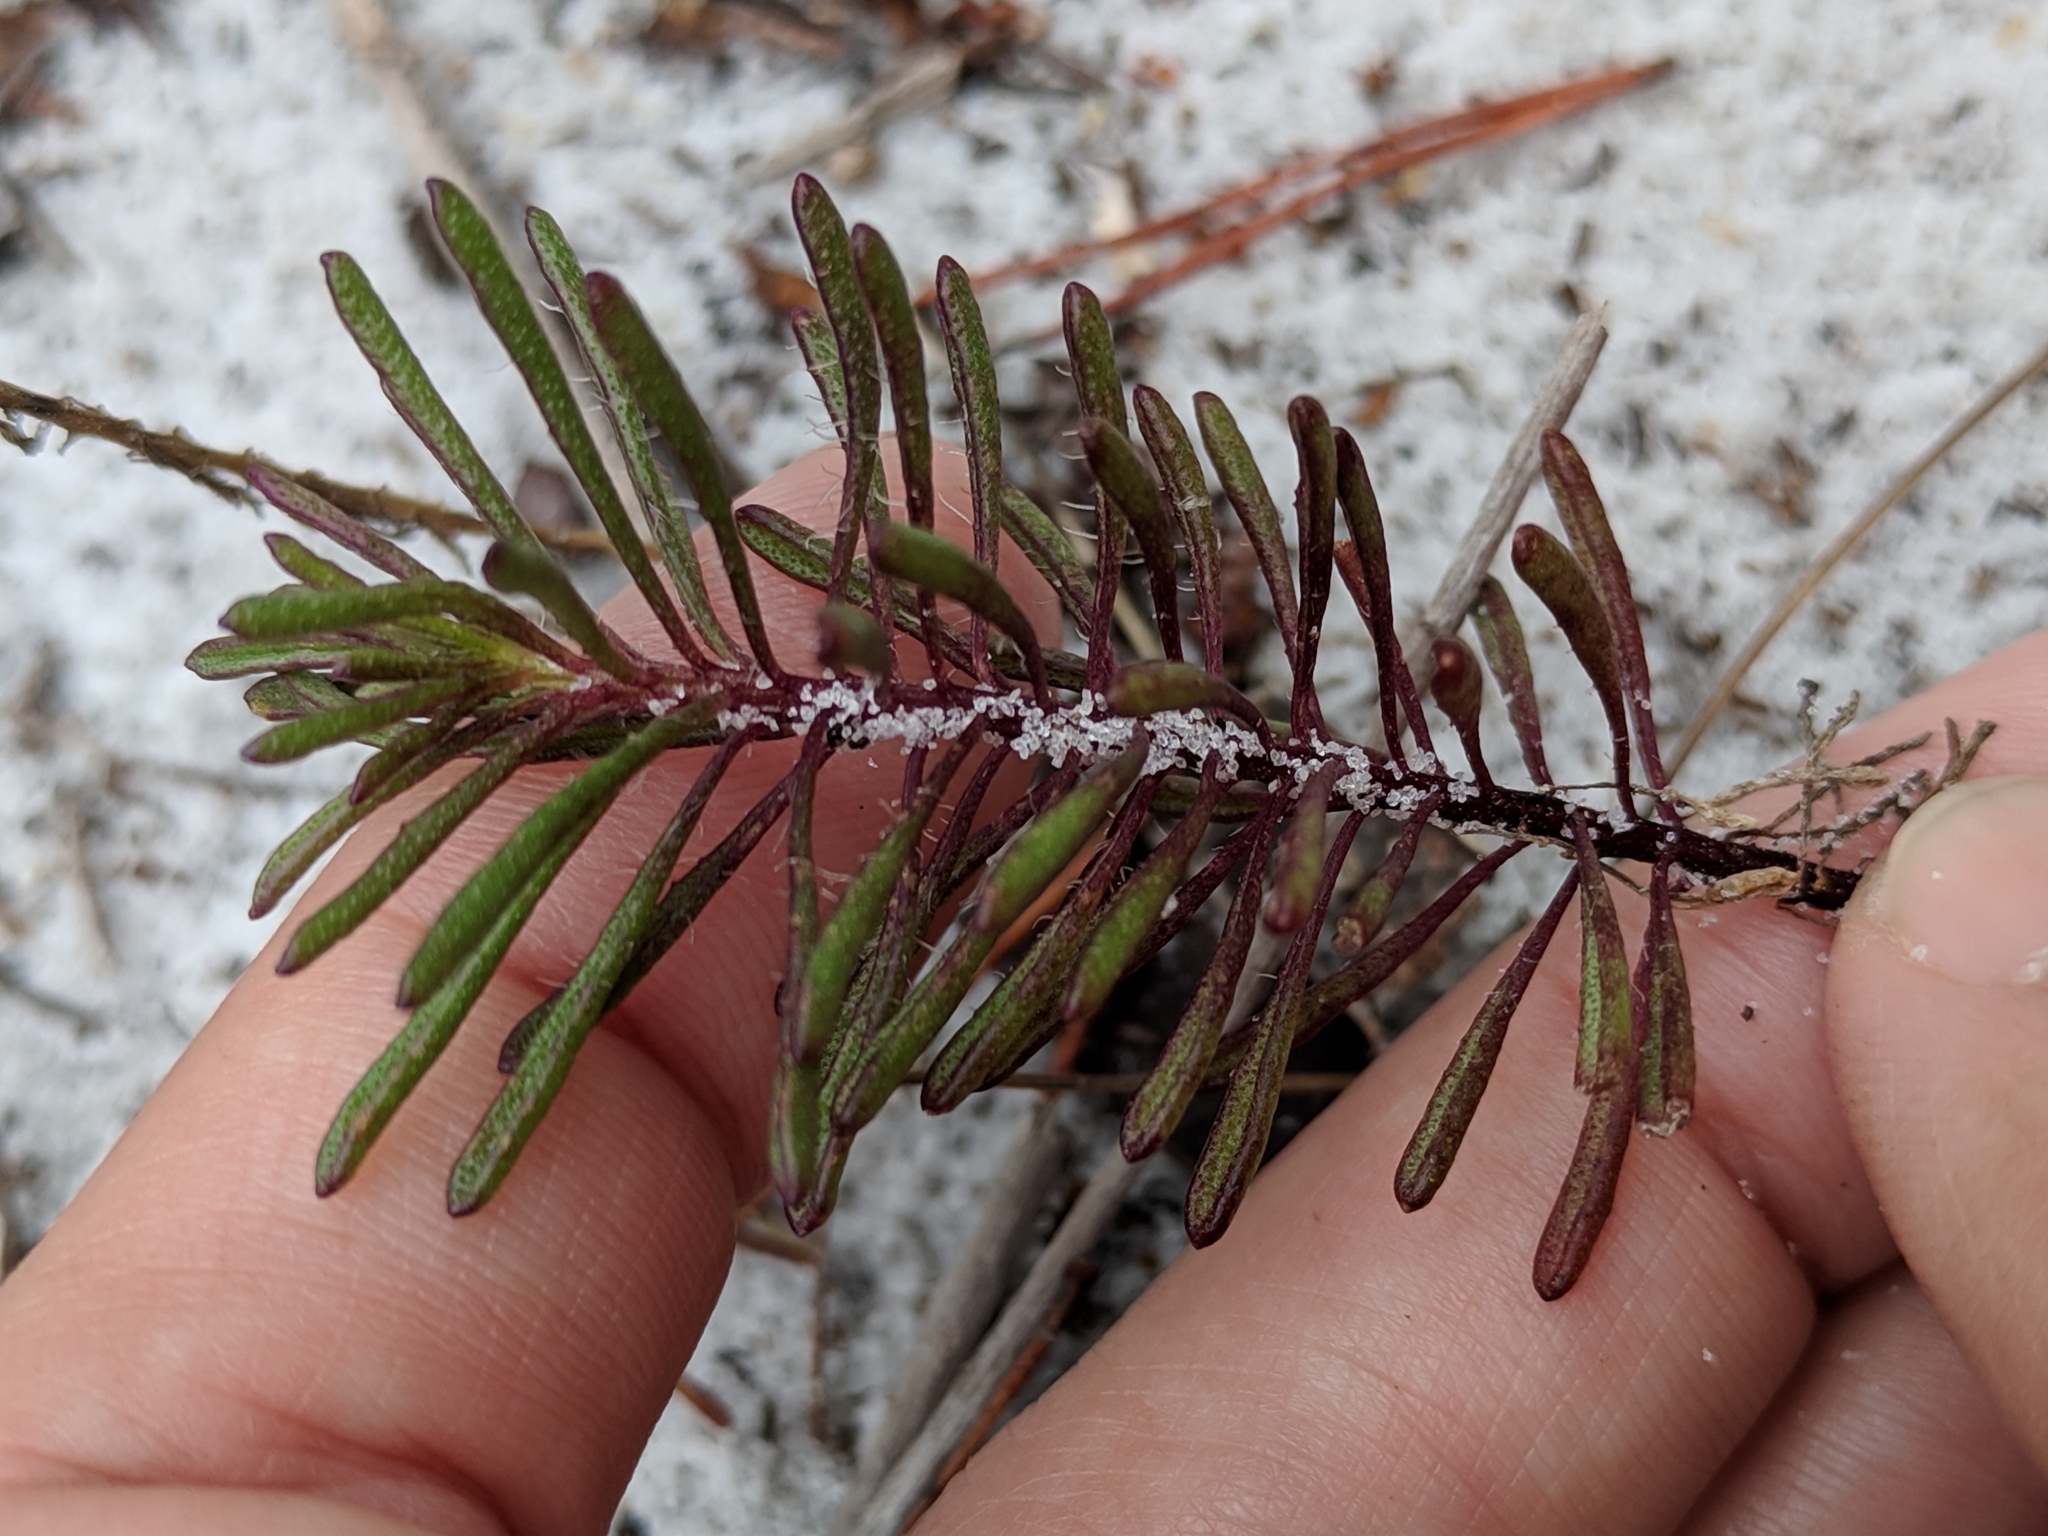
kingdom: Plantae
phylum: Tracheophyta
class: Magnoliopsida
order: Asterales
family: Asteraceae
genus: Balduina
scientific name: Balduina angustifolia
